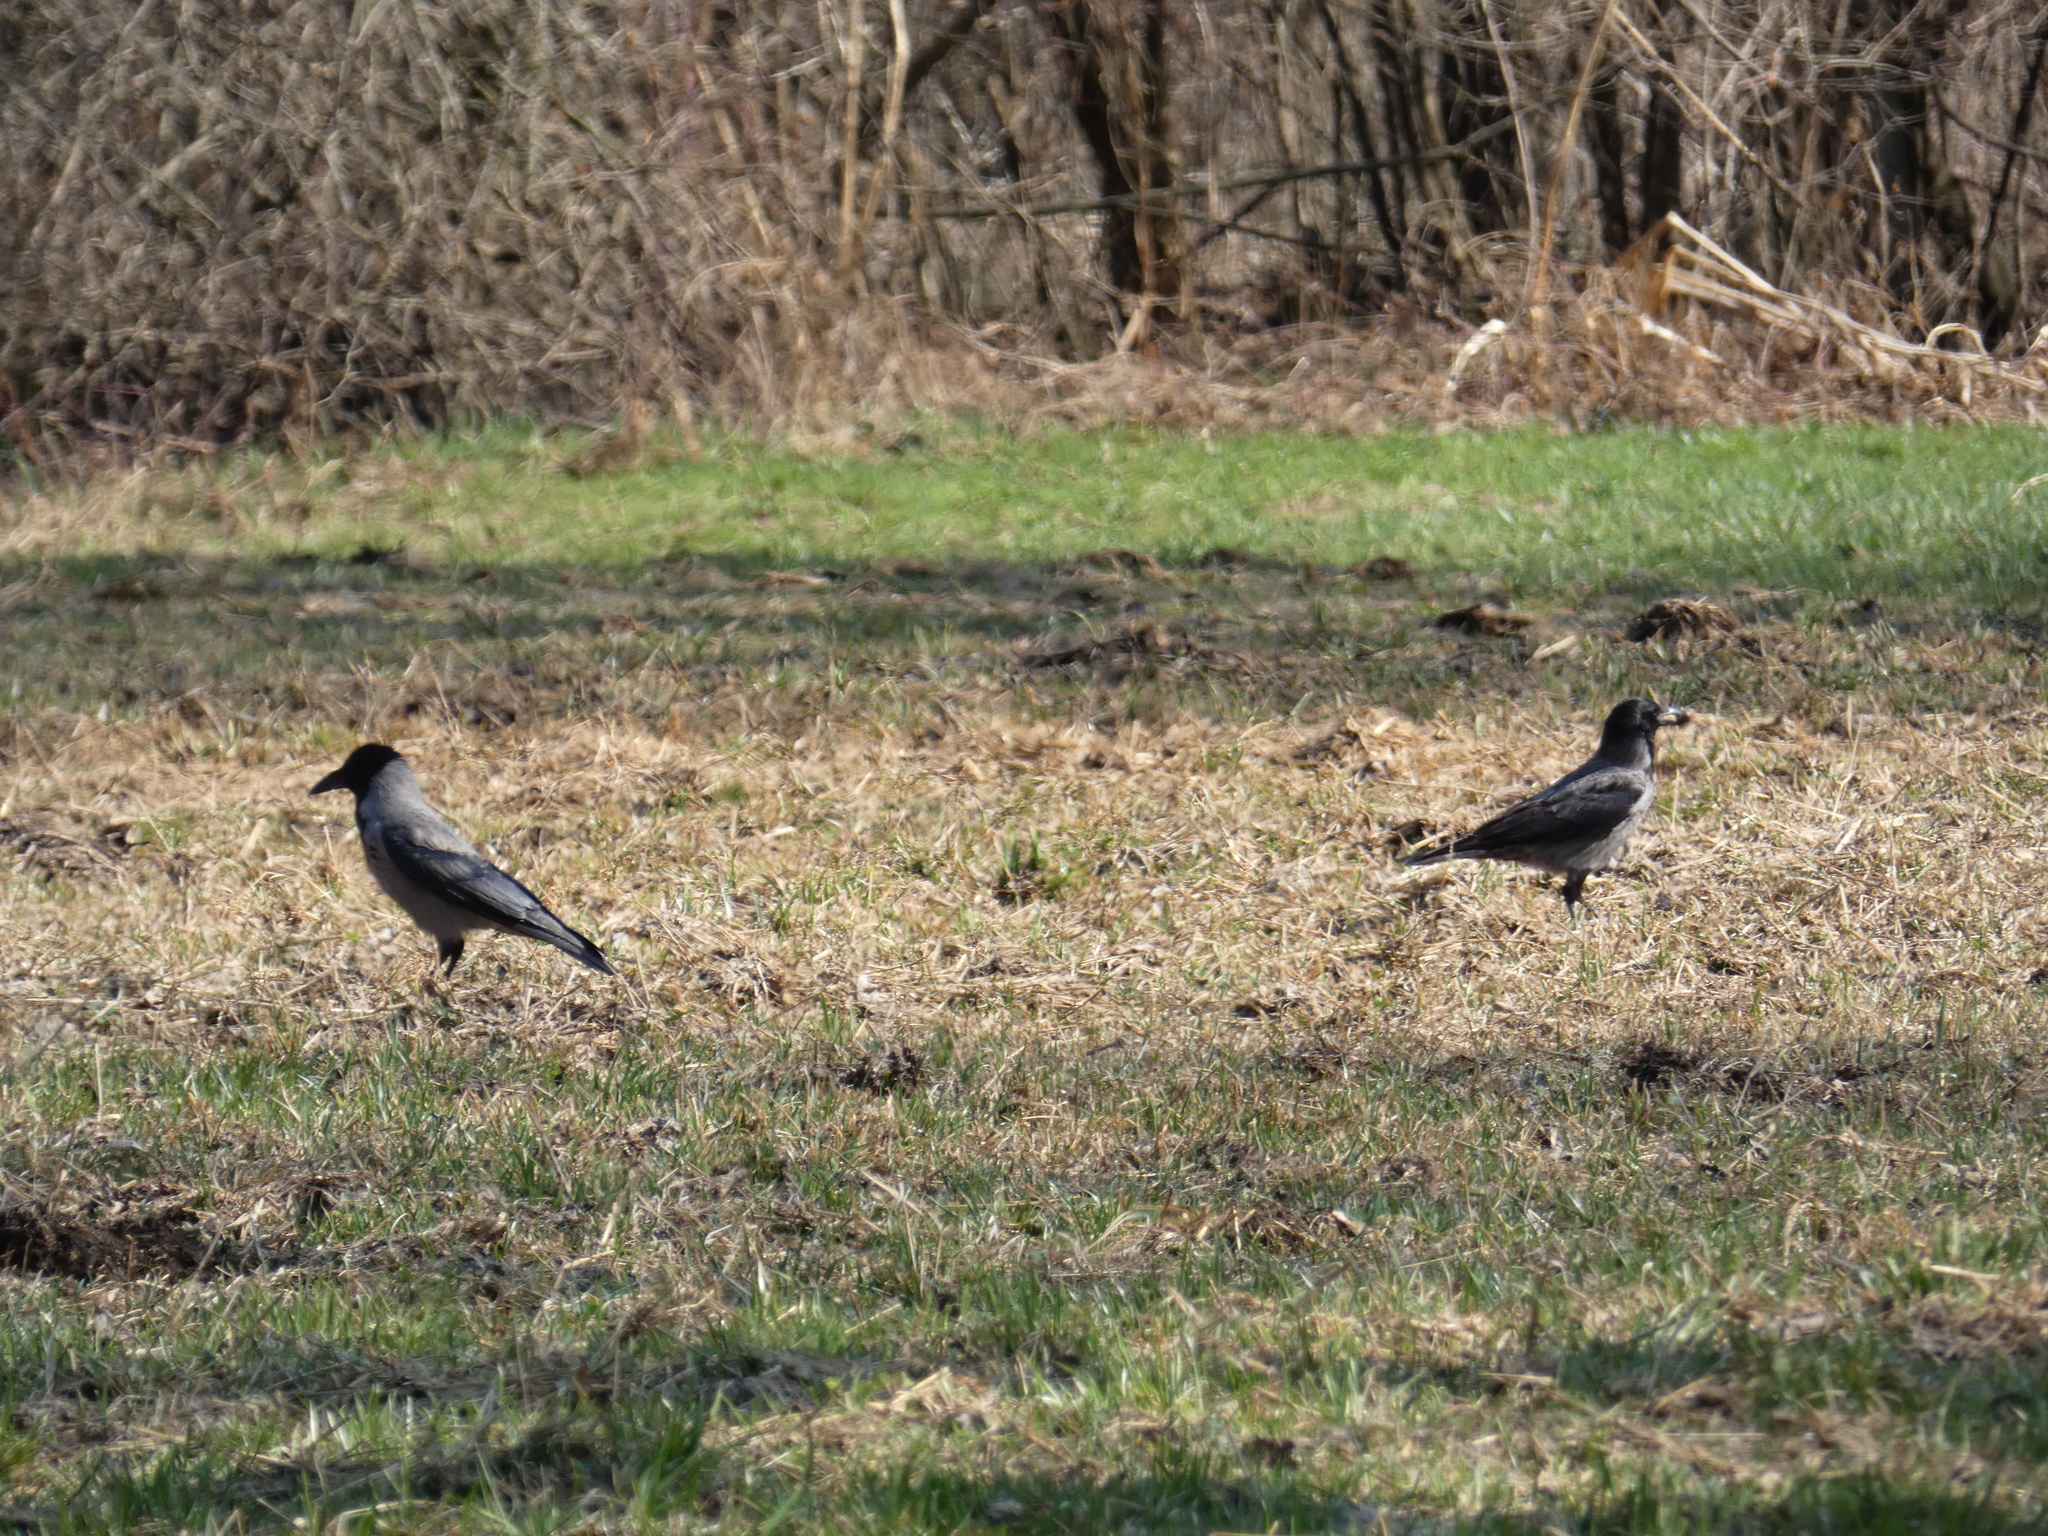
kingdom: Animalia
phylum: Chordata
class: Aves
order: Passeriformes
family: Corvidae
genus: Corvus
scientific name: Corvus cornix
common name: Hooded crow
